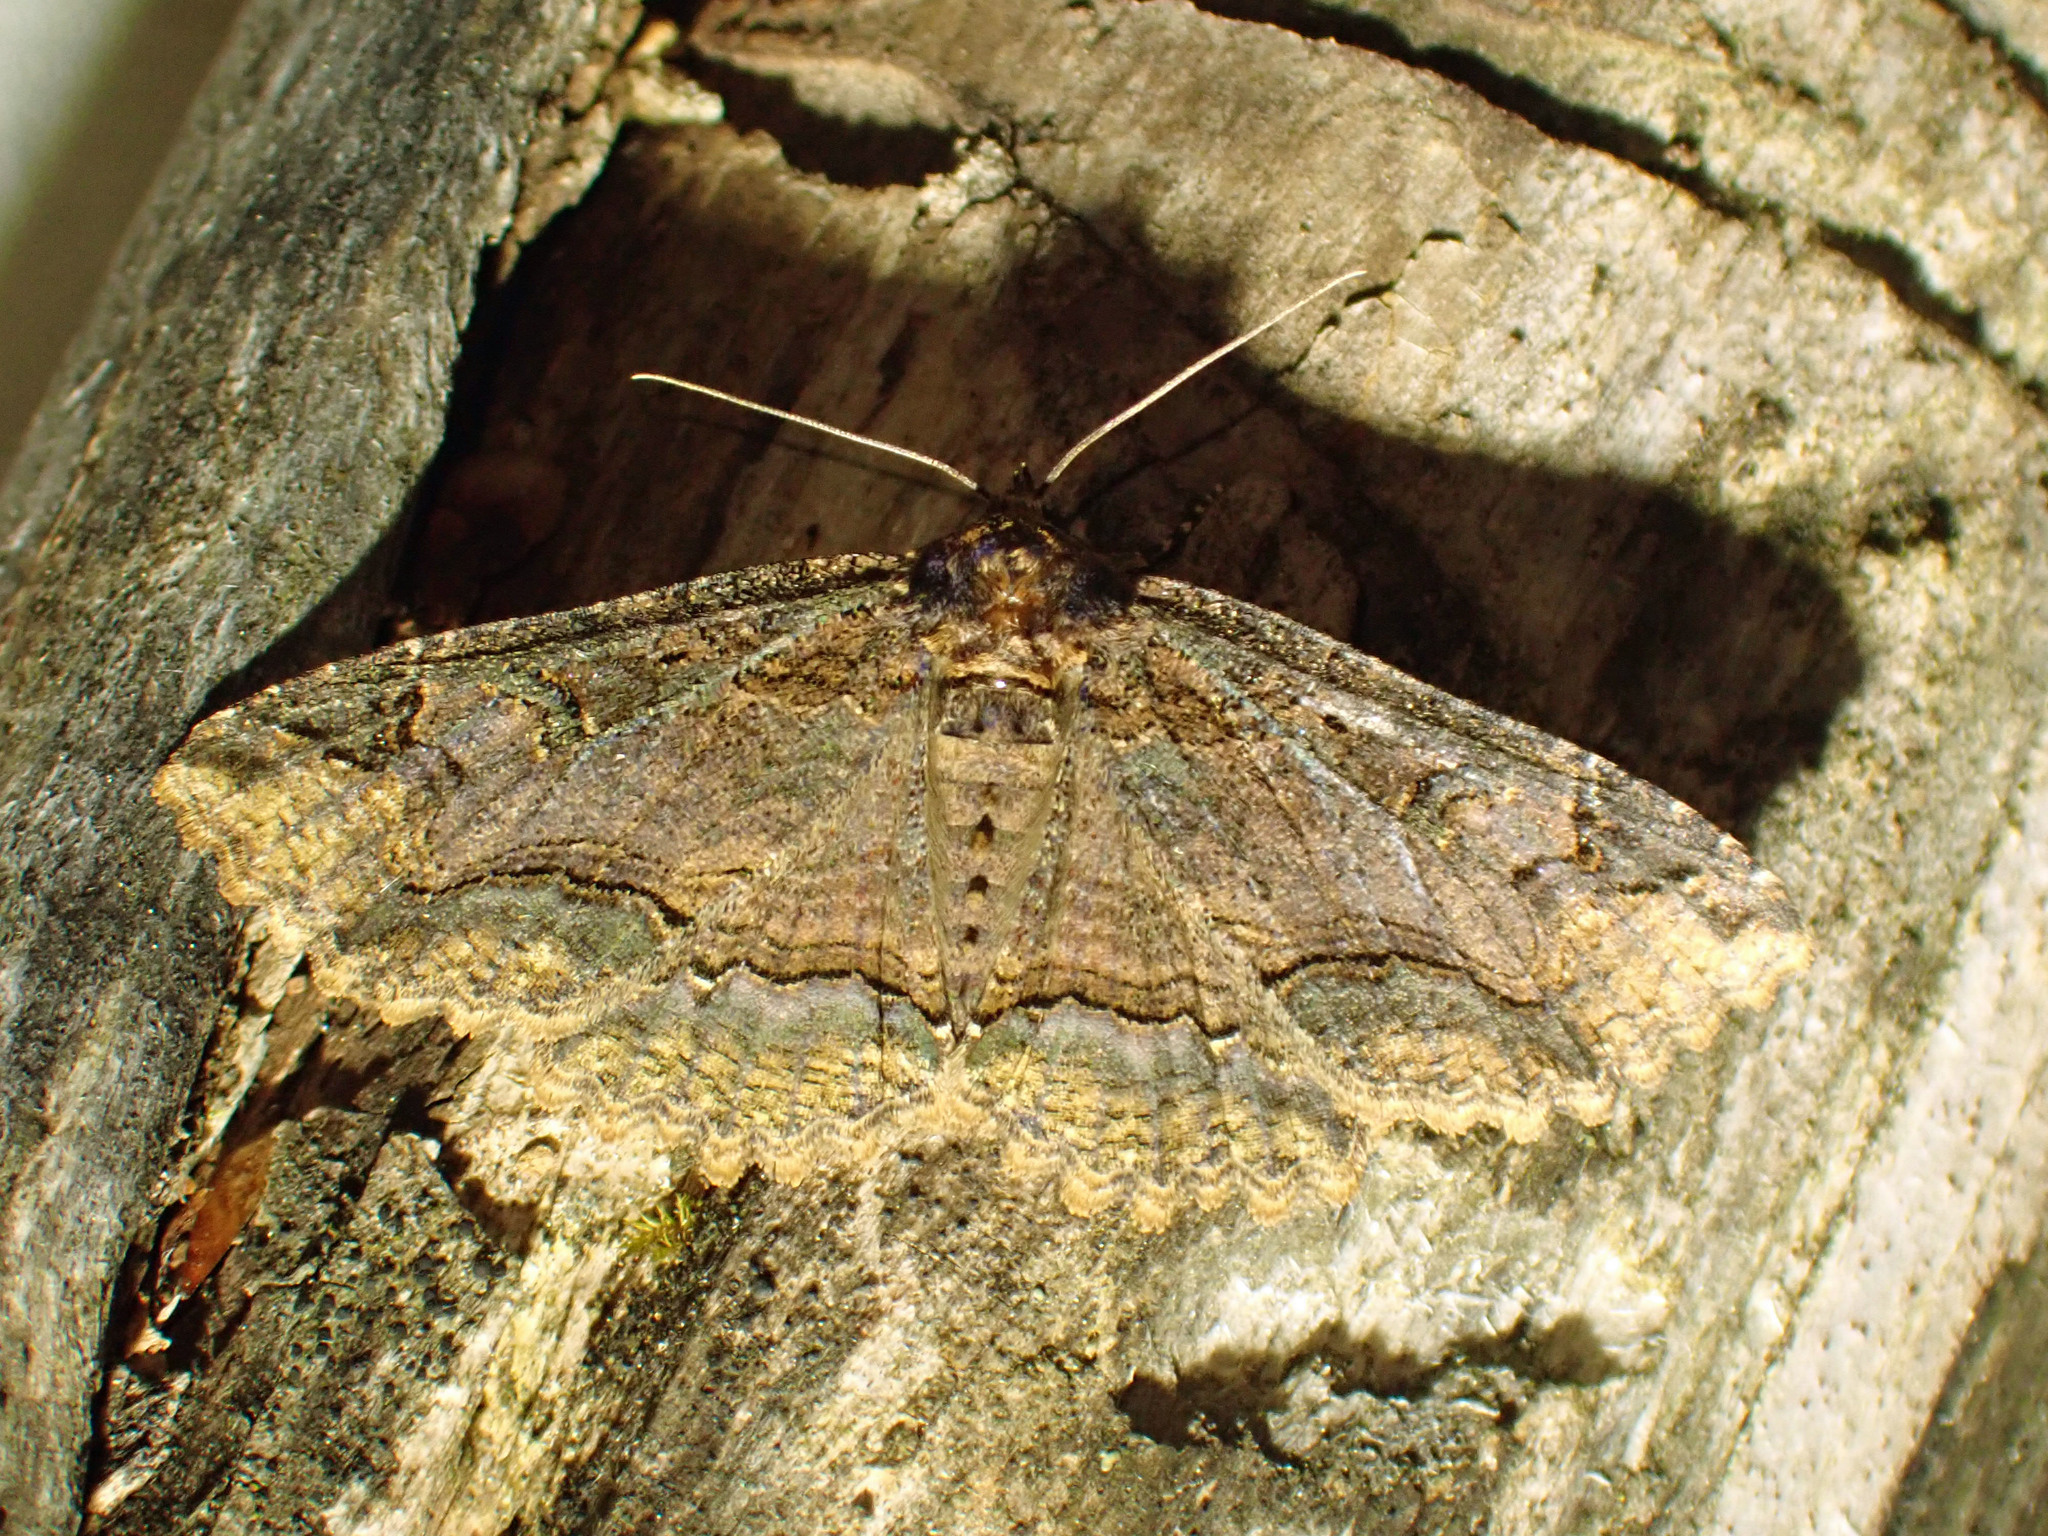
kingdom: Animalia
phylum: Arthropoda
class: Insecta
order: Lepidoptera
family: Erebidae
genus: Zale
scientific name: Zale minerea
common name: Colorful zale moth
